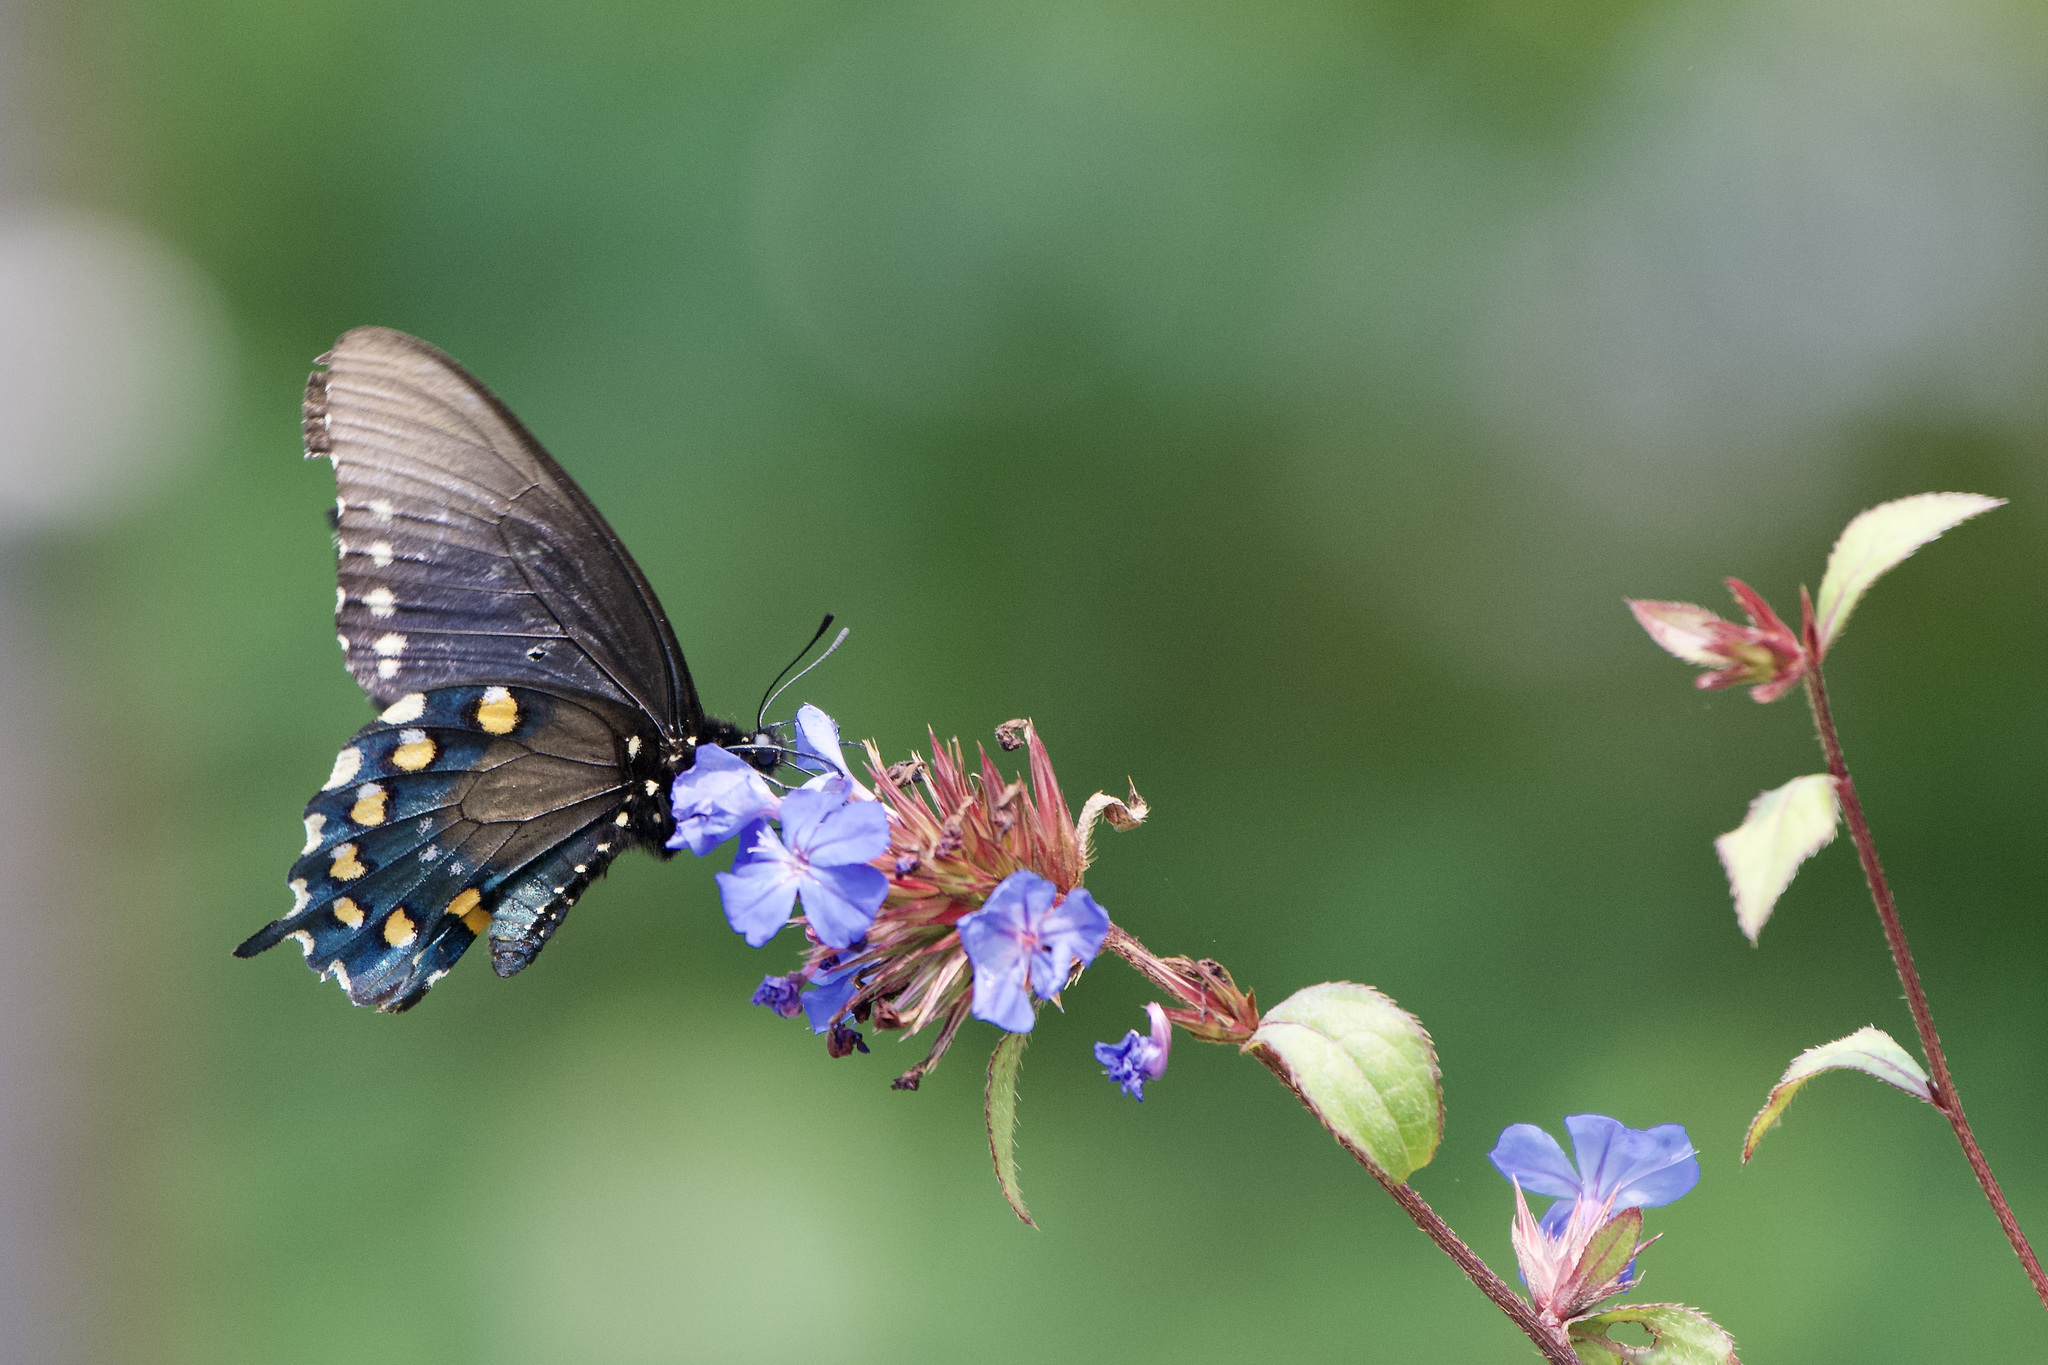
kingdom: Animalia
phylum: Arthropoda
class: Insecta
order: Lepidoptera
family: Papilionidae
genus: Battus
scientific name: Battus philenor
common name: Pipevine swallowtail
